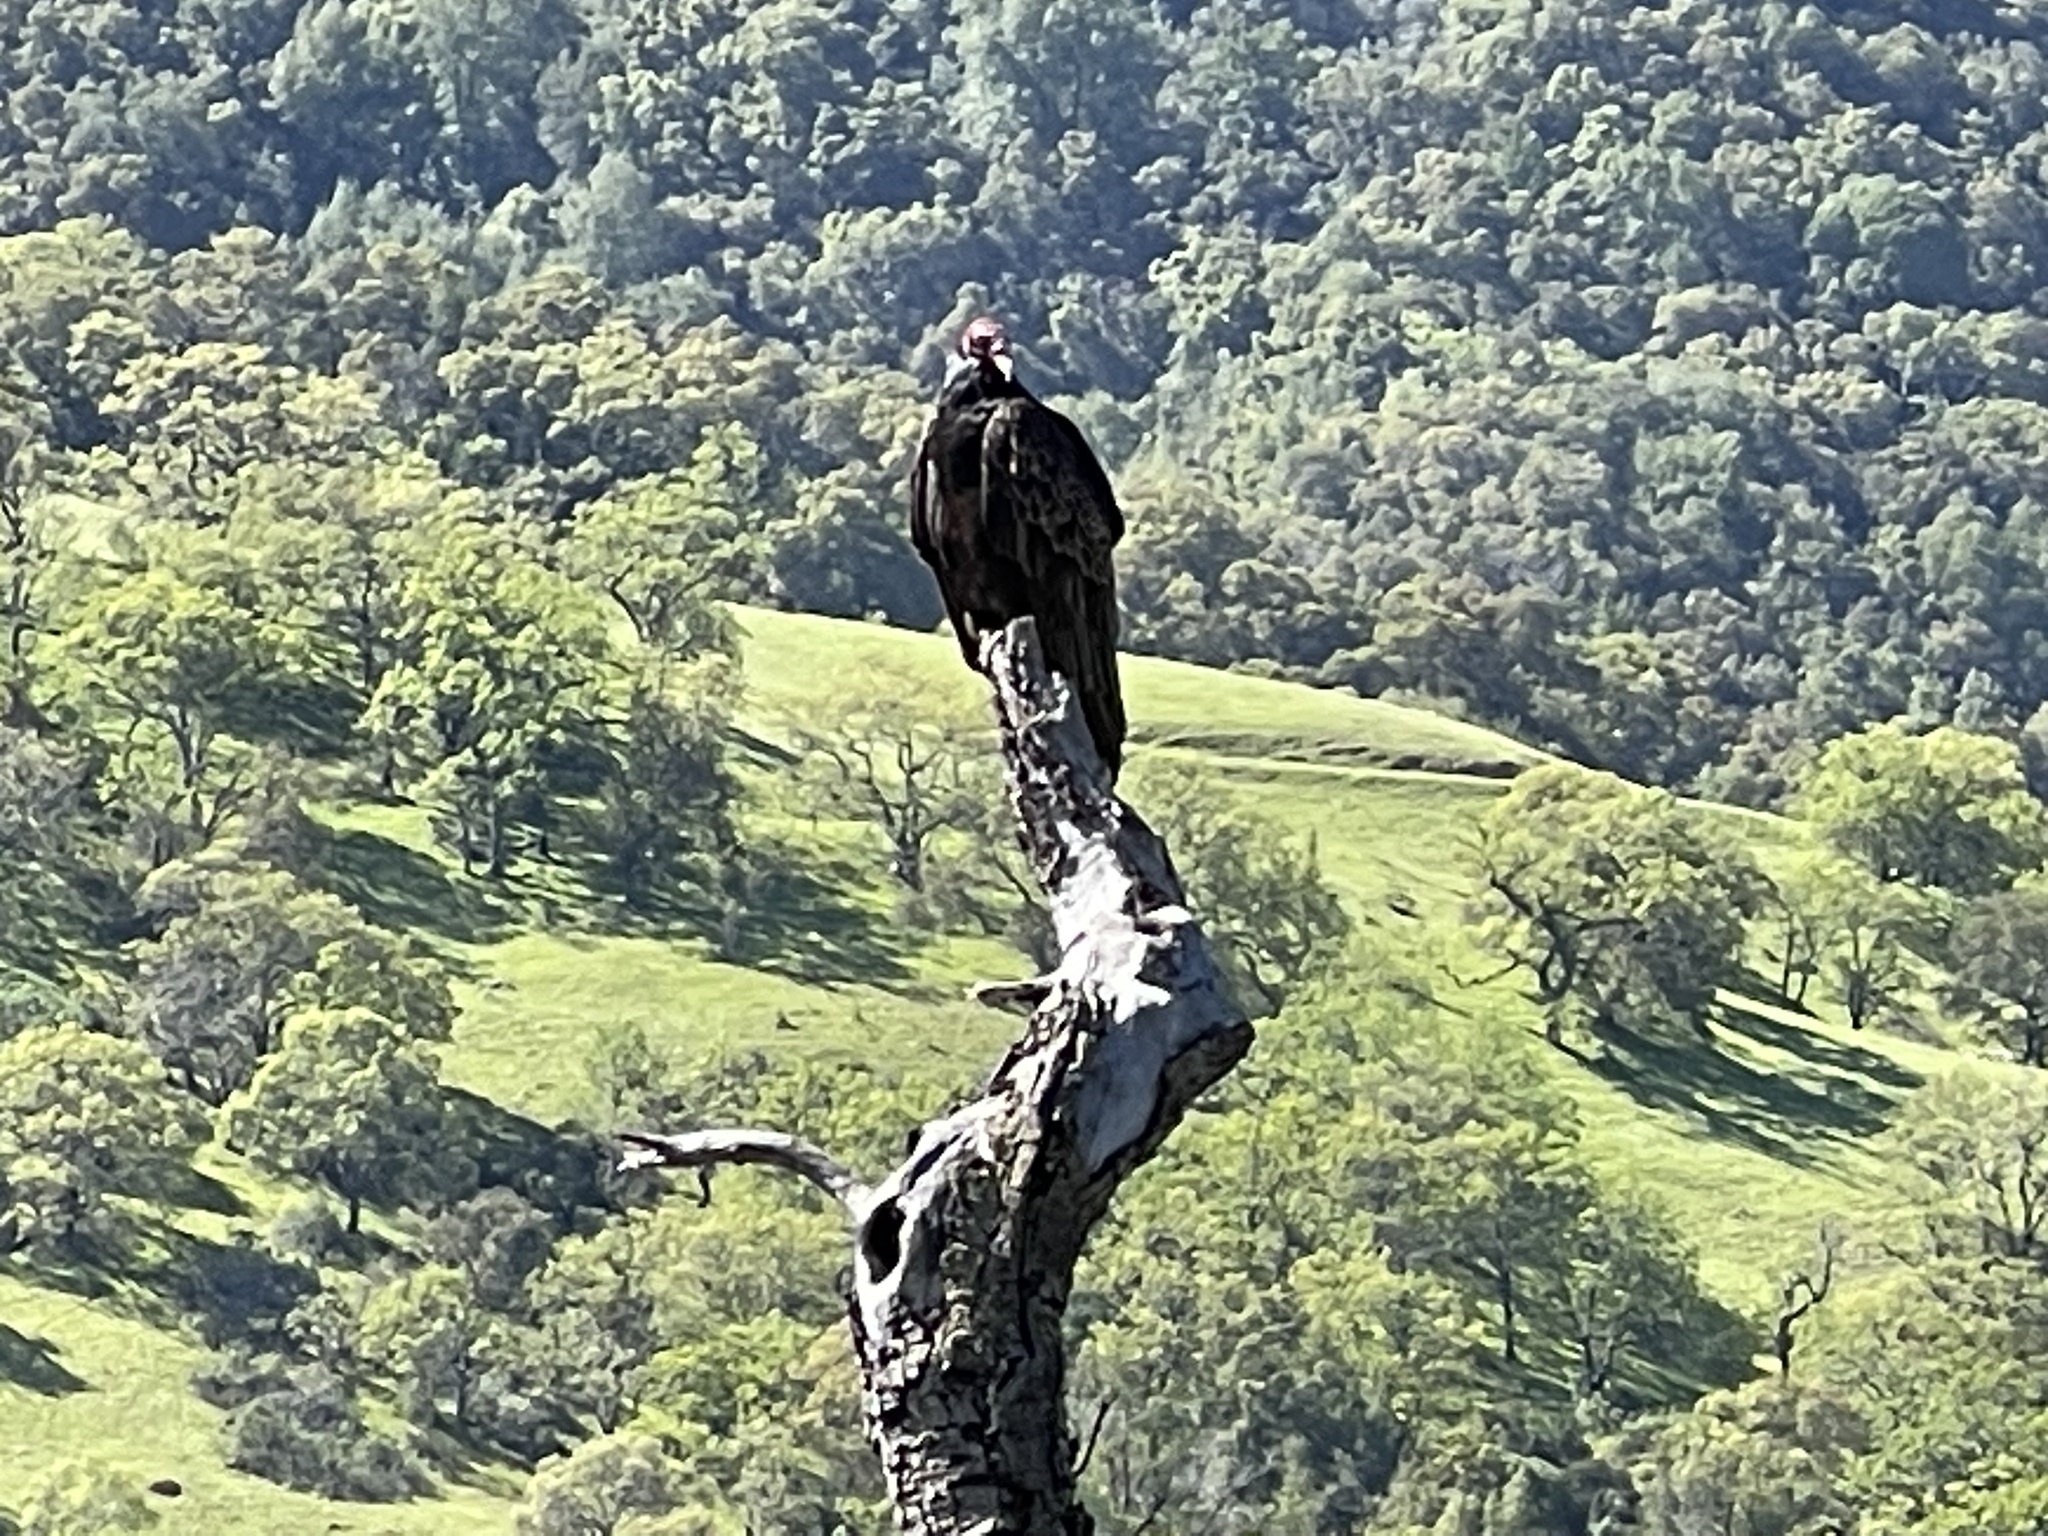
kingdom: Animalia
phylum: Chordata
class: Aves
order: Accipitriformes
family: Cathartidae
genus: Cathartes
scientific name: Cathartes aura
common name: Turkey vulture
